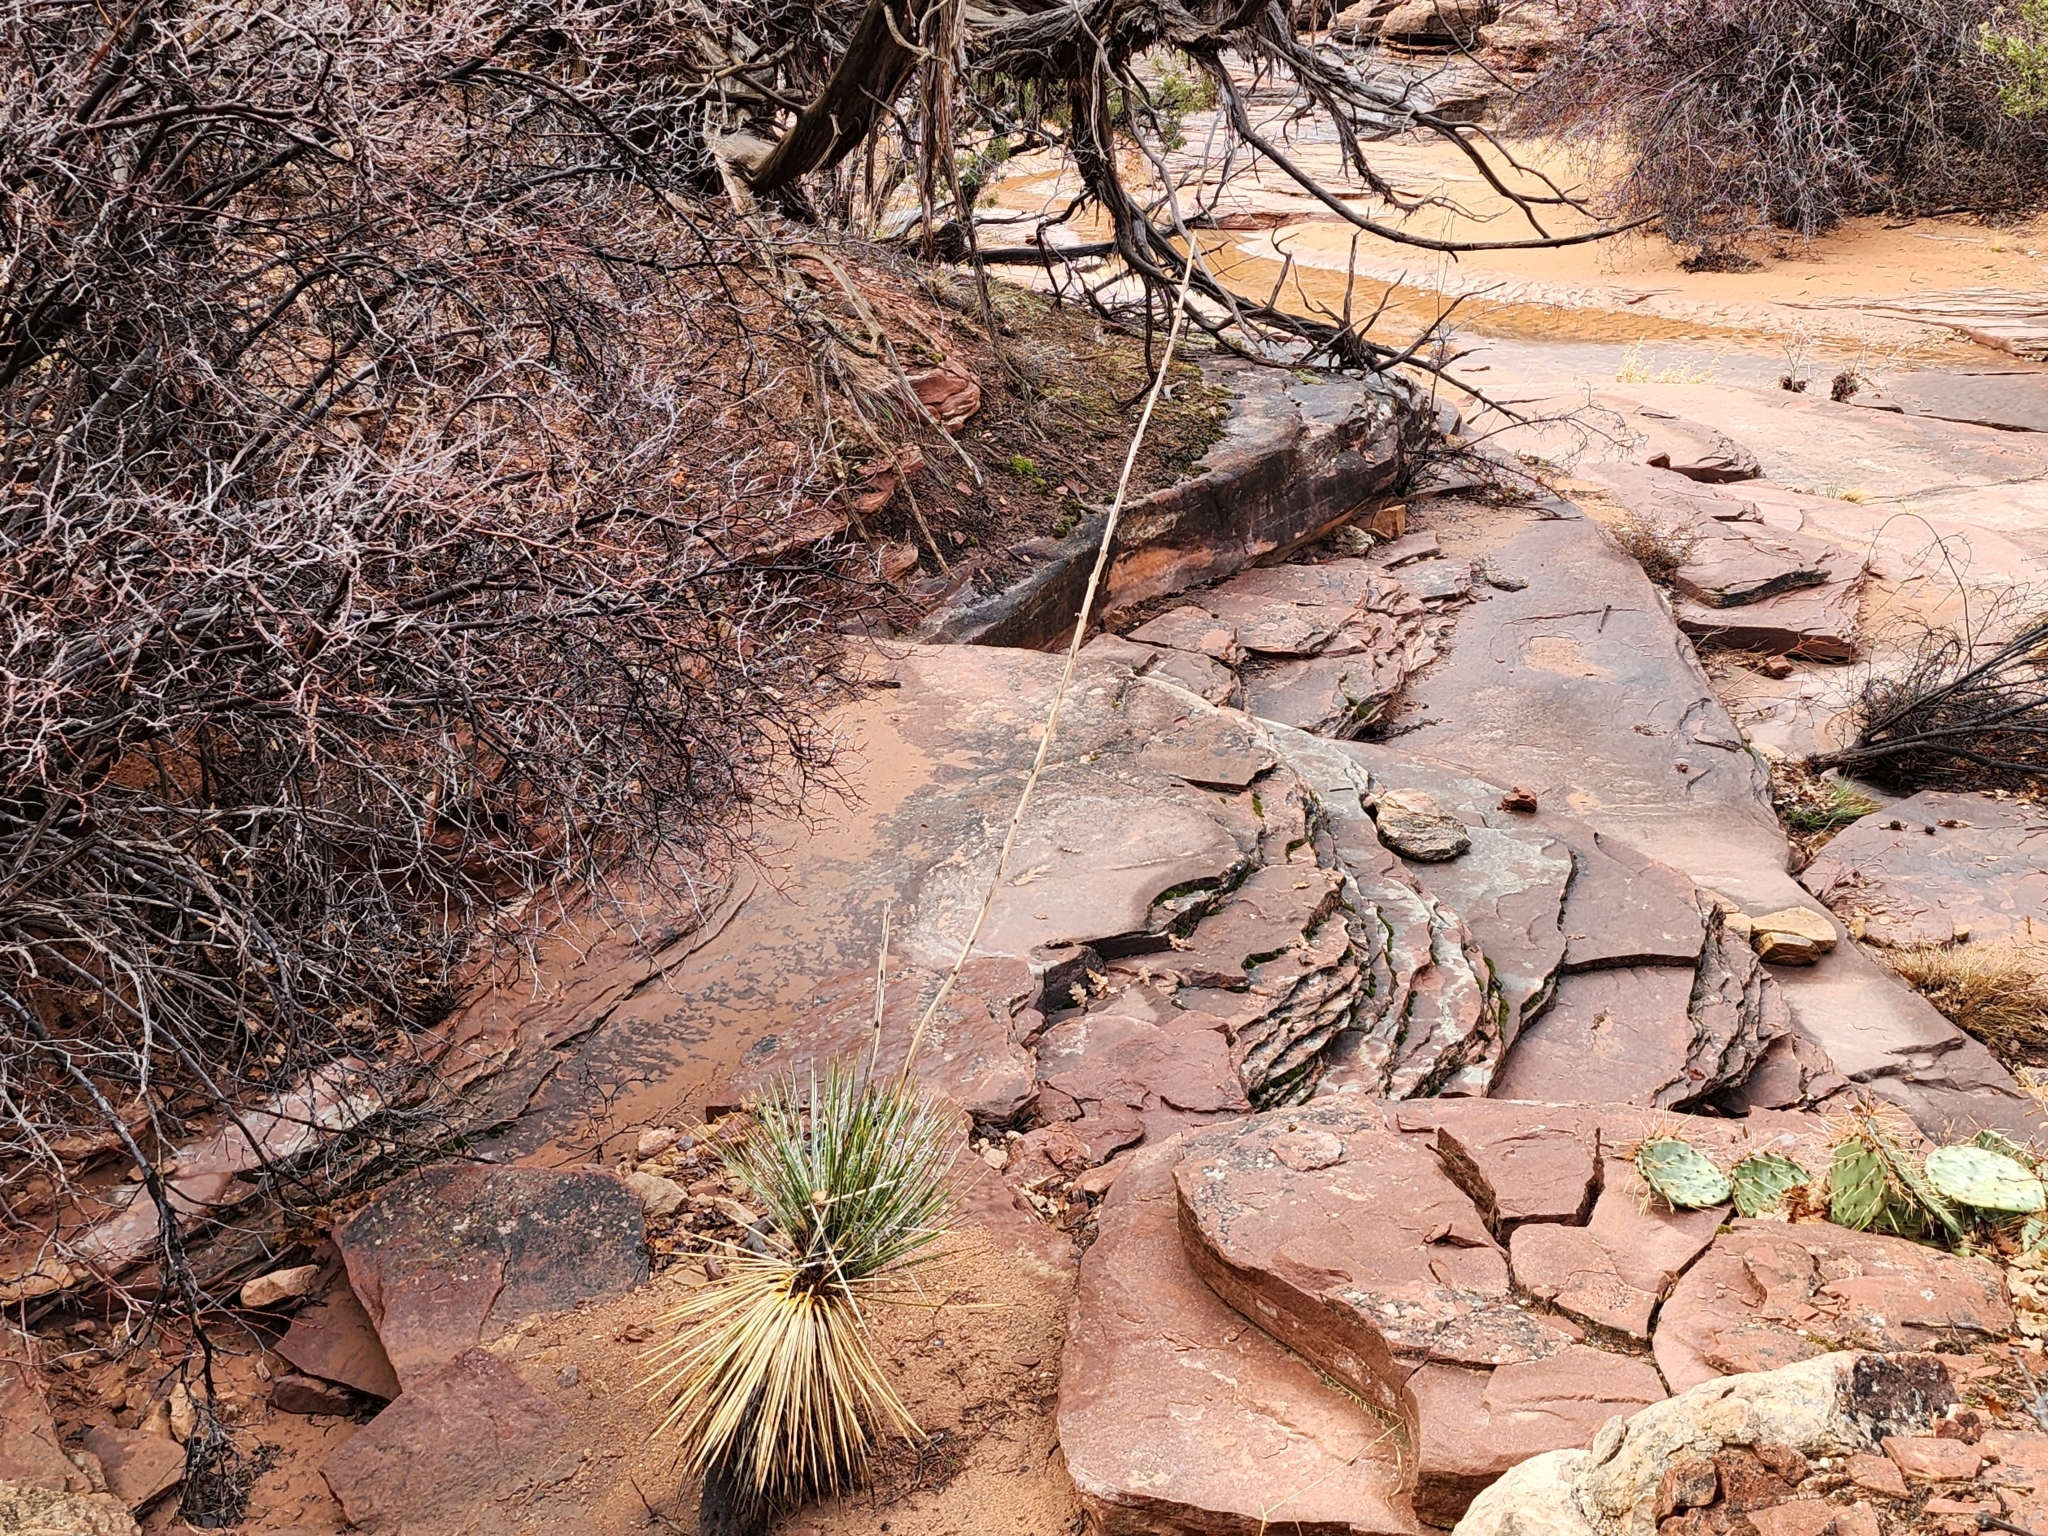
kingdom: Plantae
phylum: Tracheophyta
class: Liliopsida
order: Asparagales
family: Asparagaceae
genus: Yucca
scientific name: Yucca angustissima
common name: Narrowleaf yucca
